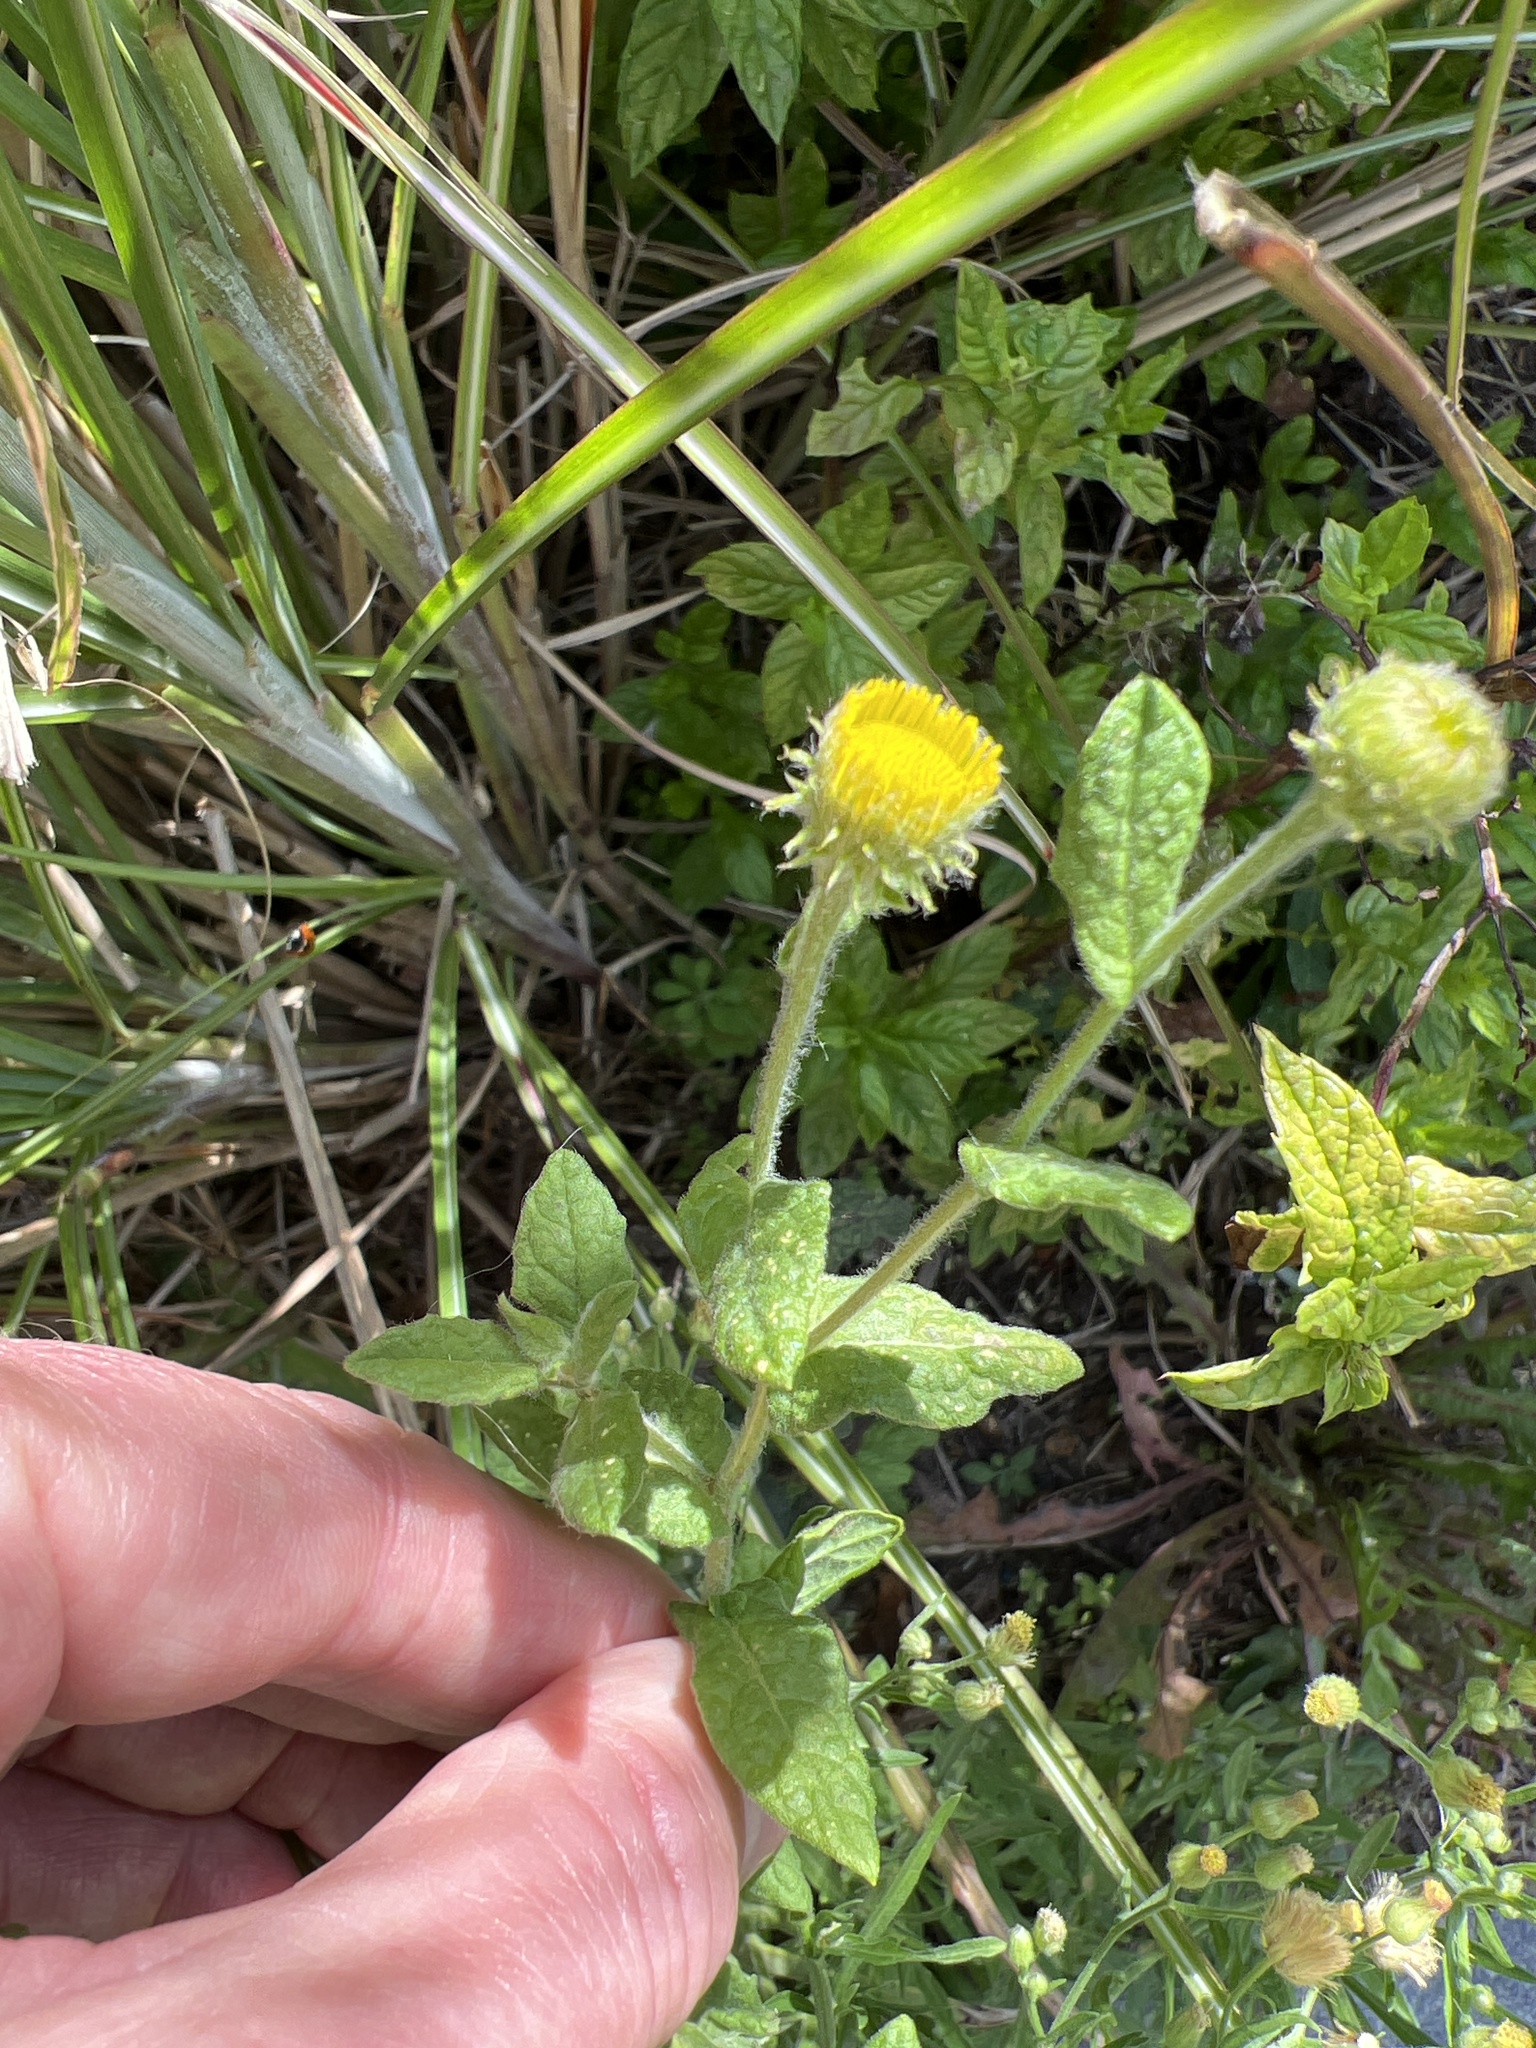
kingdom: Plantae
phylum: Tracheophyta
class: Magnoliopsida
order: Asterales
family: Asteraceae
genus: Pulicaria
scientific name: Pulicaria dysenterica
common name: Common fleabane
